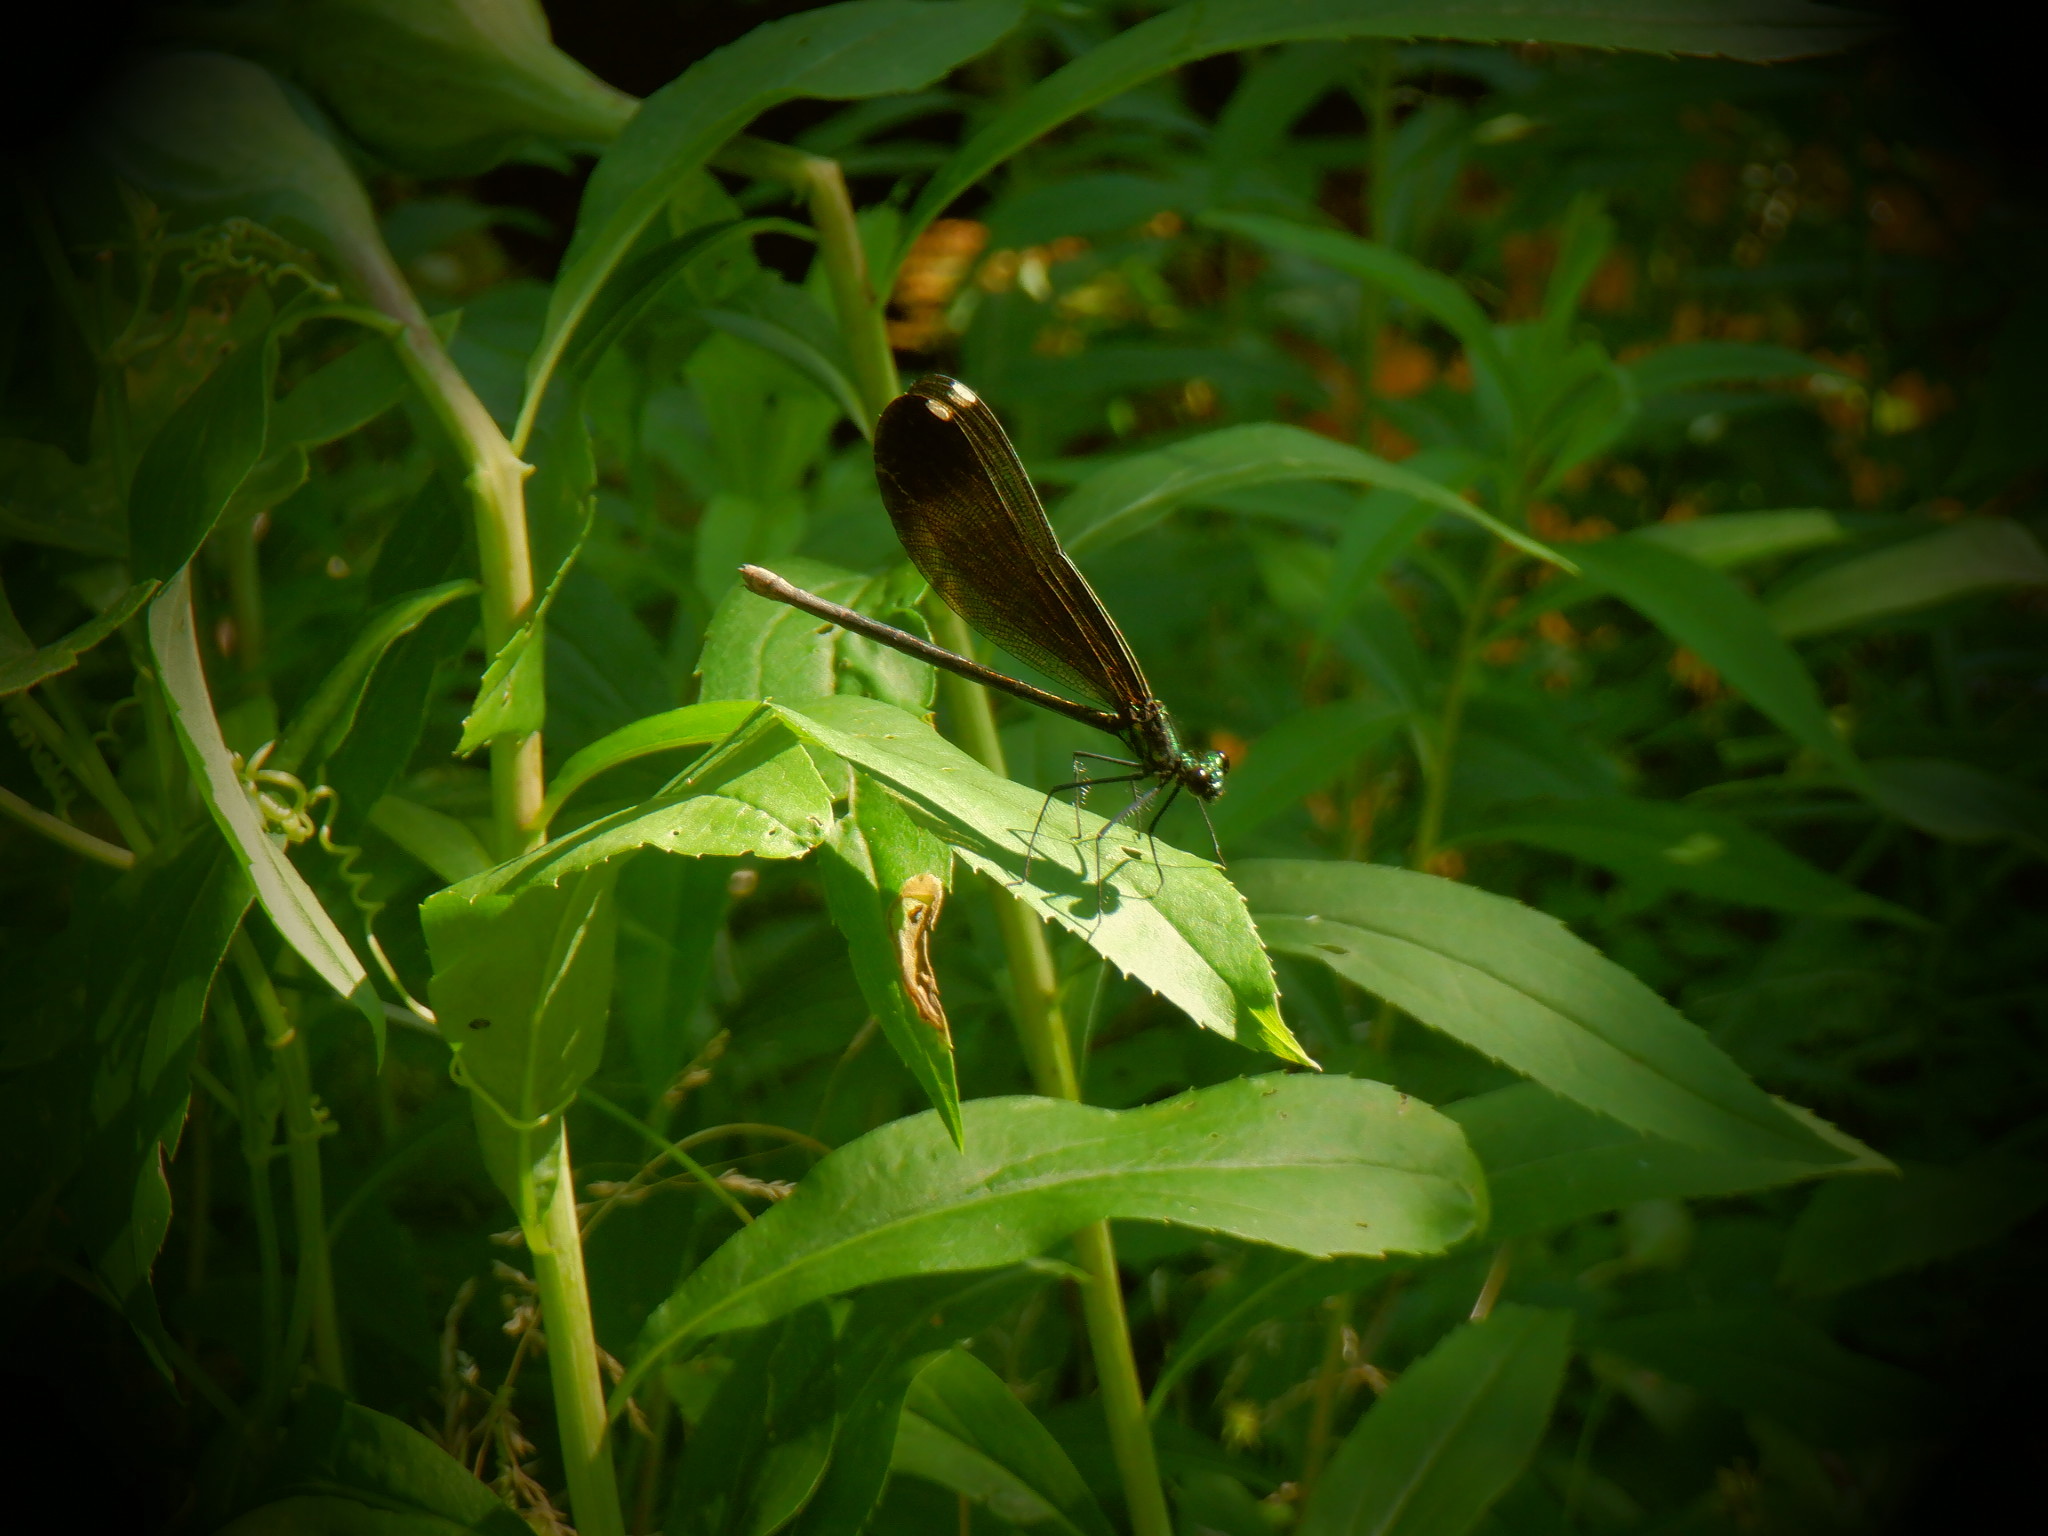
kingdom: Animalia
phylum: Arthropoda
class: Insecta
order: Odonata
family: Calopterygidae
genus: Calopteryx
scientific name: Calopteryx maculata
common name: Ebony jewelwing
